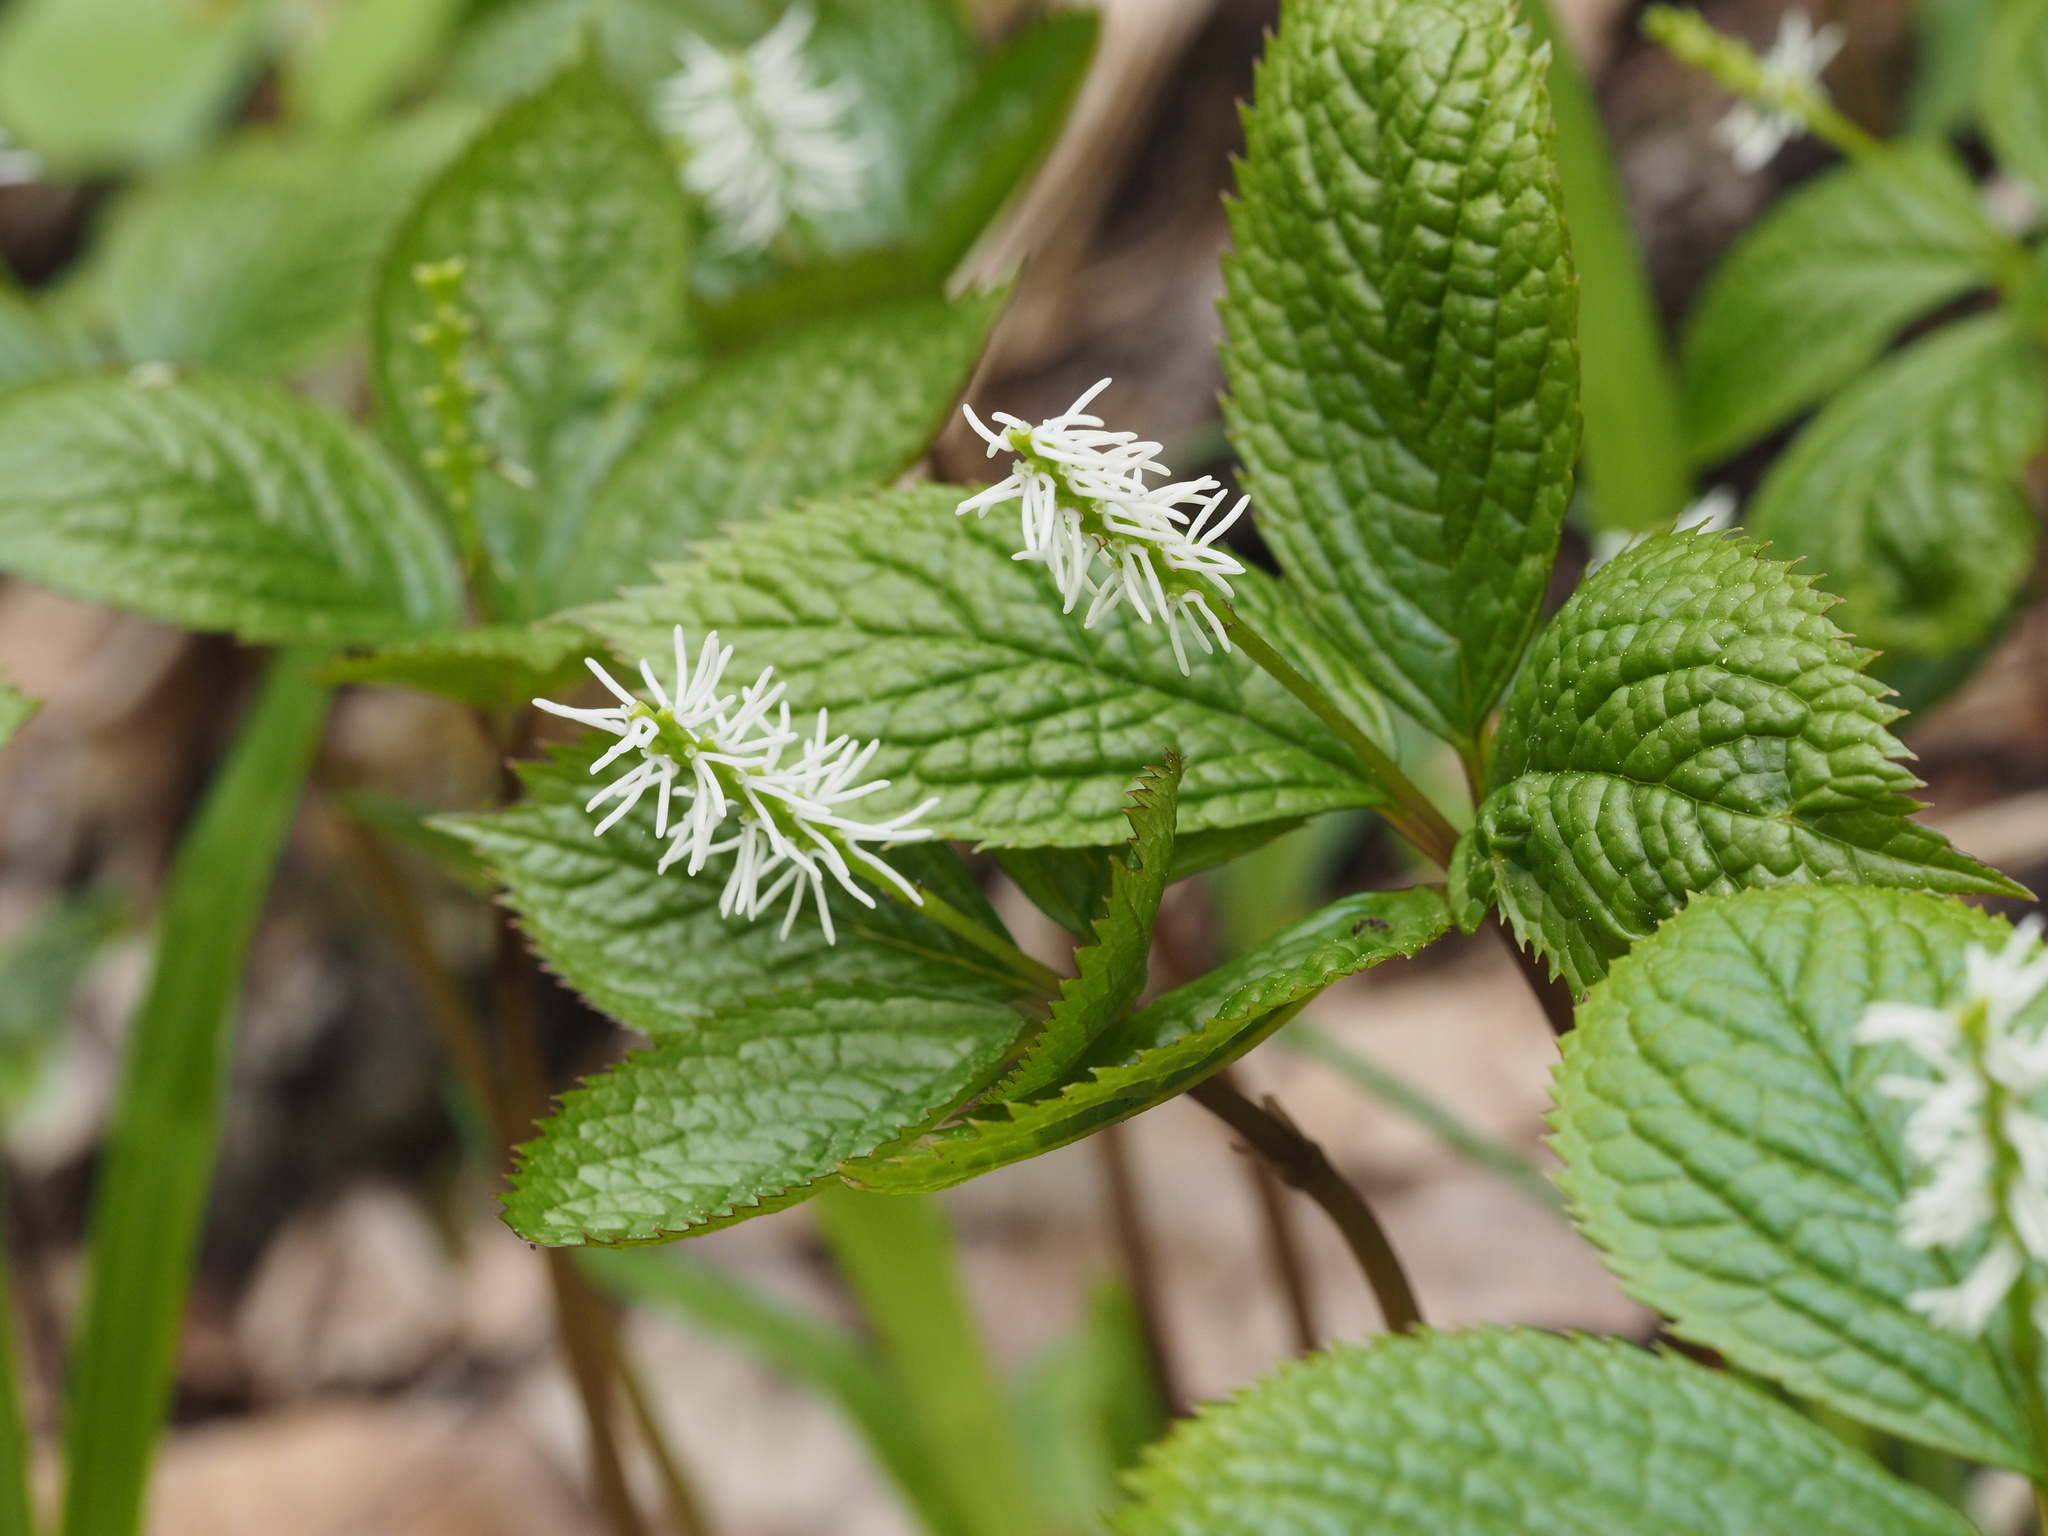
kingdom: Plantae
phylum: Tracheophyta
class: Magnoliopsida
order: Chloranthales
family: Chloranthaceae
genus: Chloranthus
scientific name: Chloranthus quadrifolius
